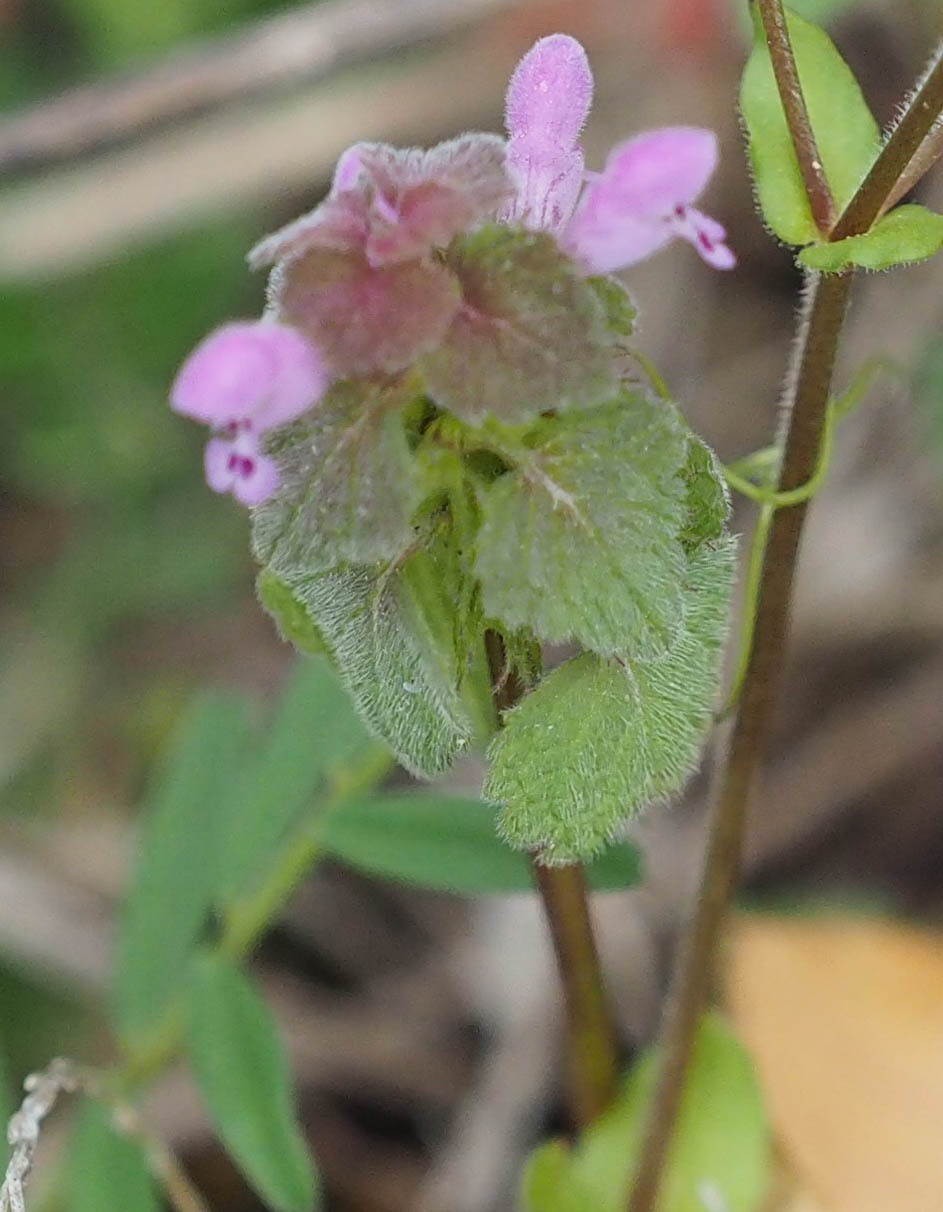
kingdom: Plantae
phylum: Tracheophyta
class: Magnoliopsida
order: Lamiales
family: Lamiaceae
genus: Lamium
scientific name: Lamium purpureum
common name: Red dead-nettle
